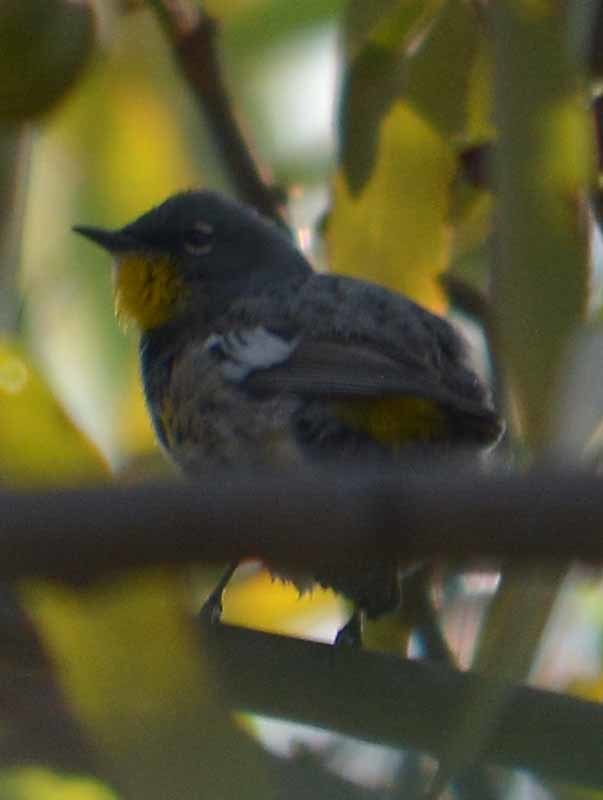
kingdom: Animalia
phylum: Chordata
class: Aves
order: Passeriformes
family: Parulidae
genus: Setophaga
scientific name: Setophaga auduboni
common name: Audubon's warbler
